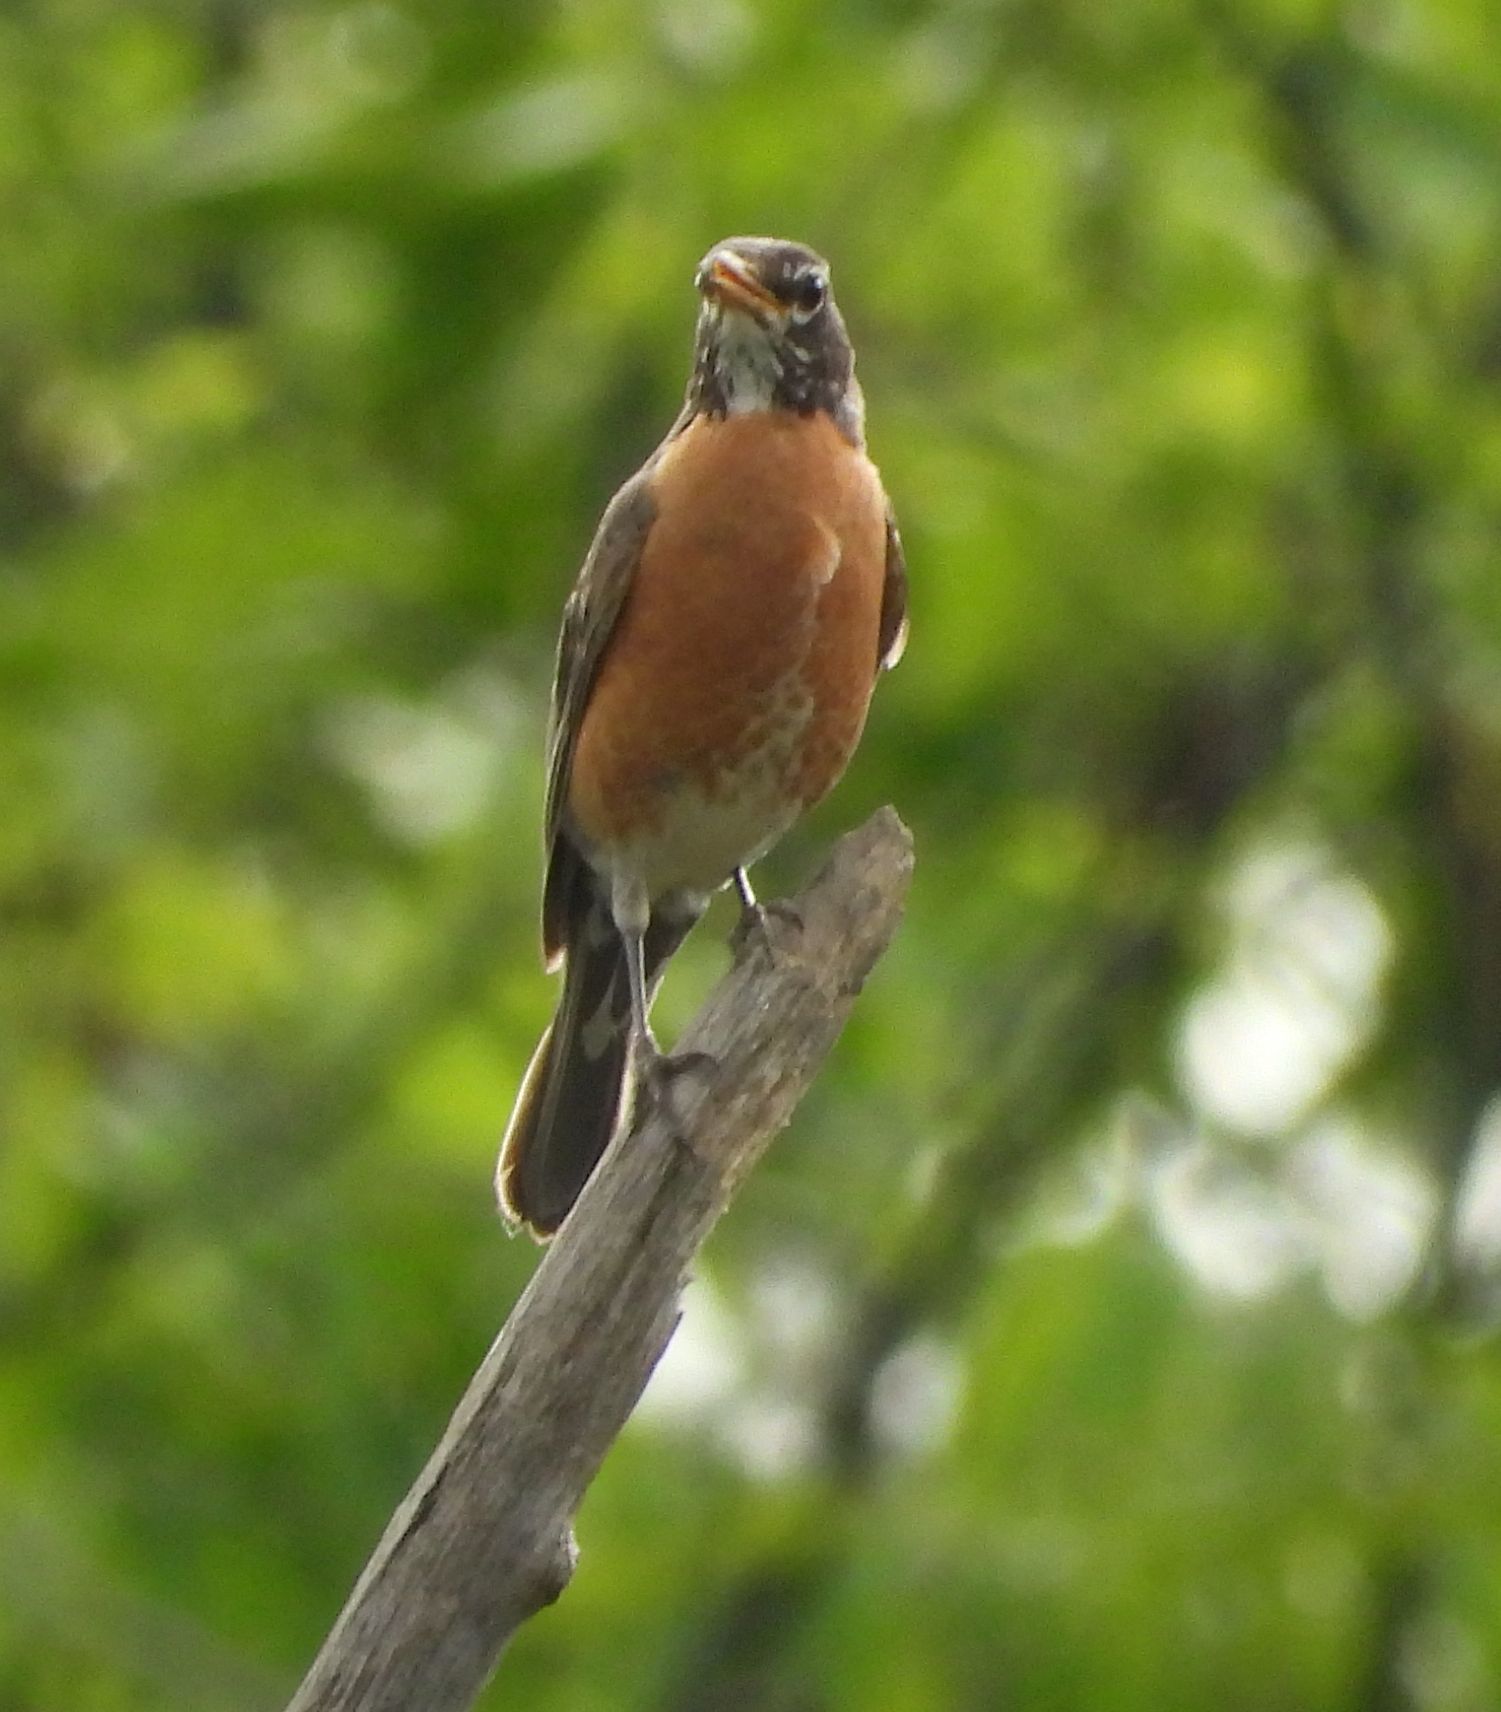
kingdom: Animalia
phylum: Chordata
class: Aves
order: Passeriformes
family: Turdidae
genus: Turdus
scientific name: Turdus migratorius
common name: American robin
